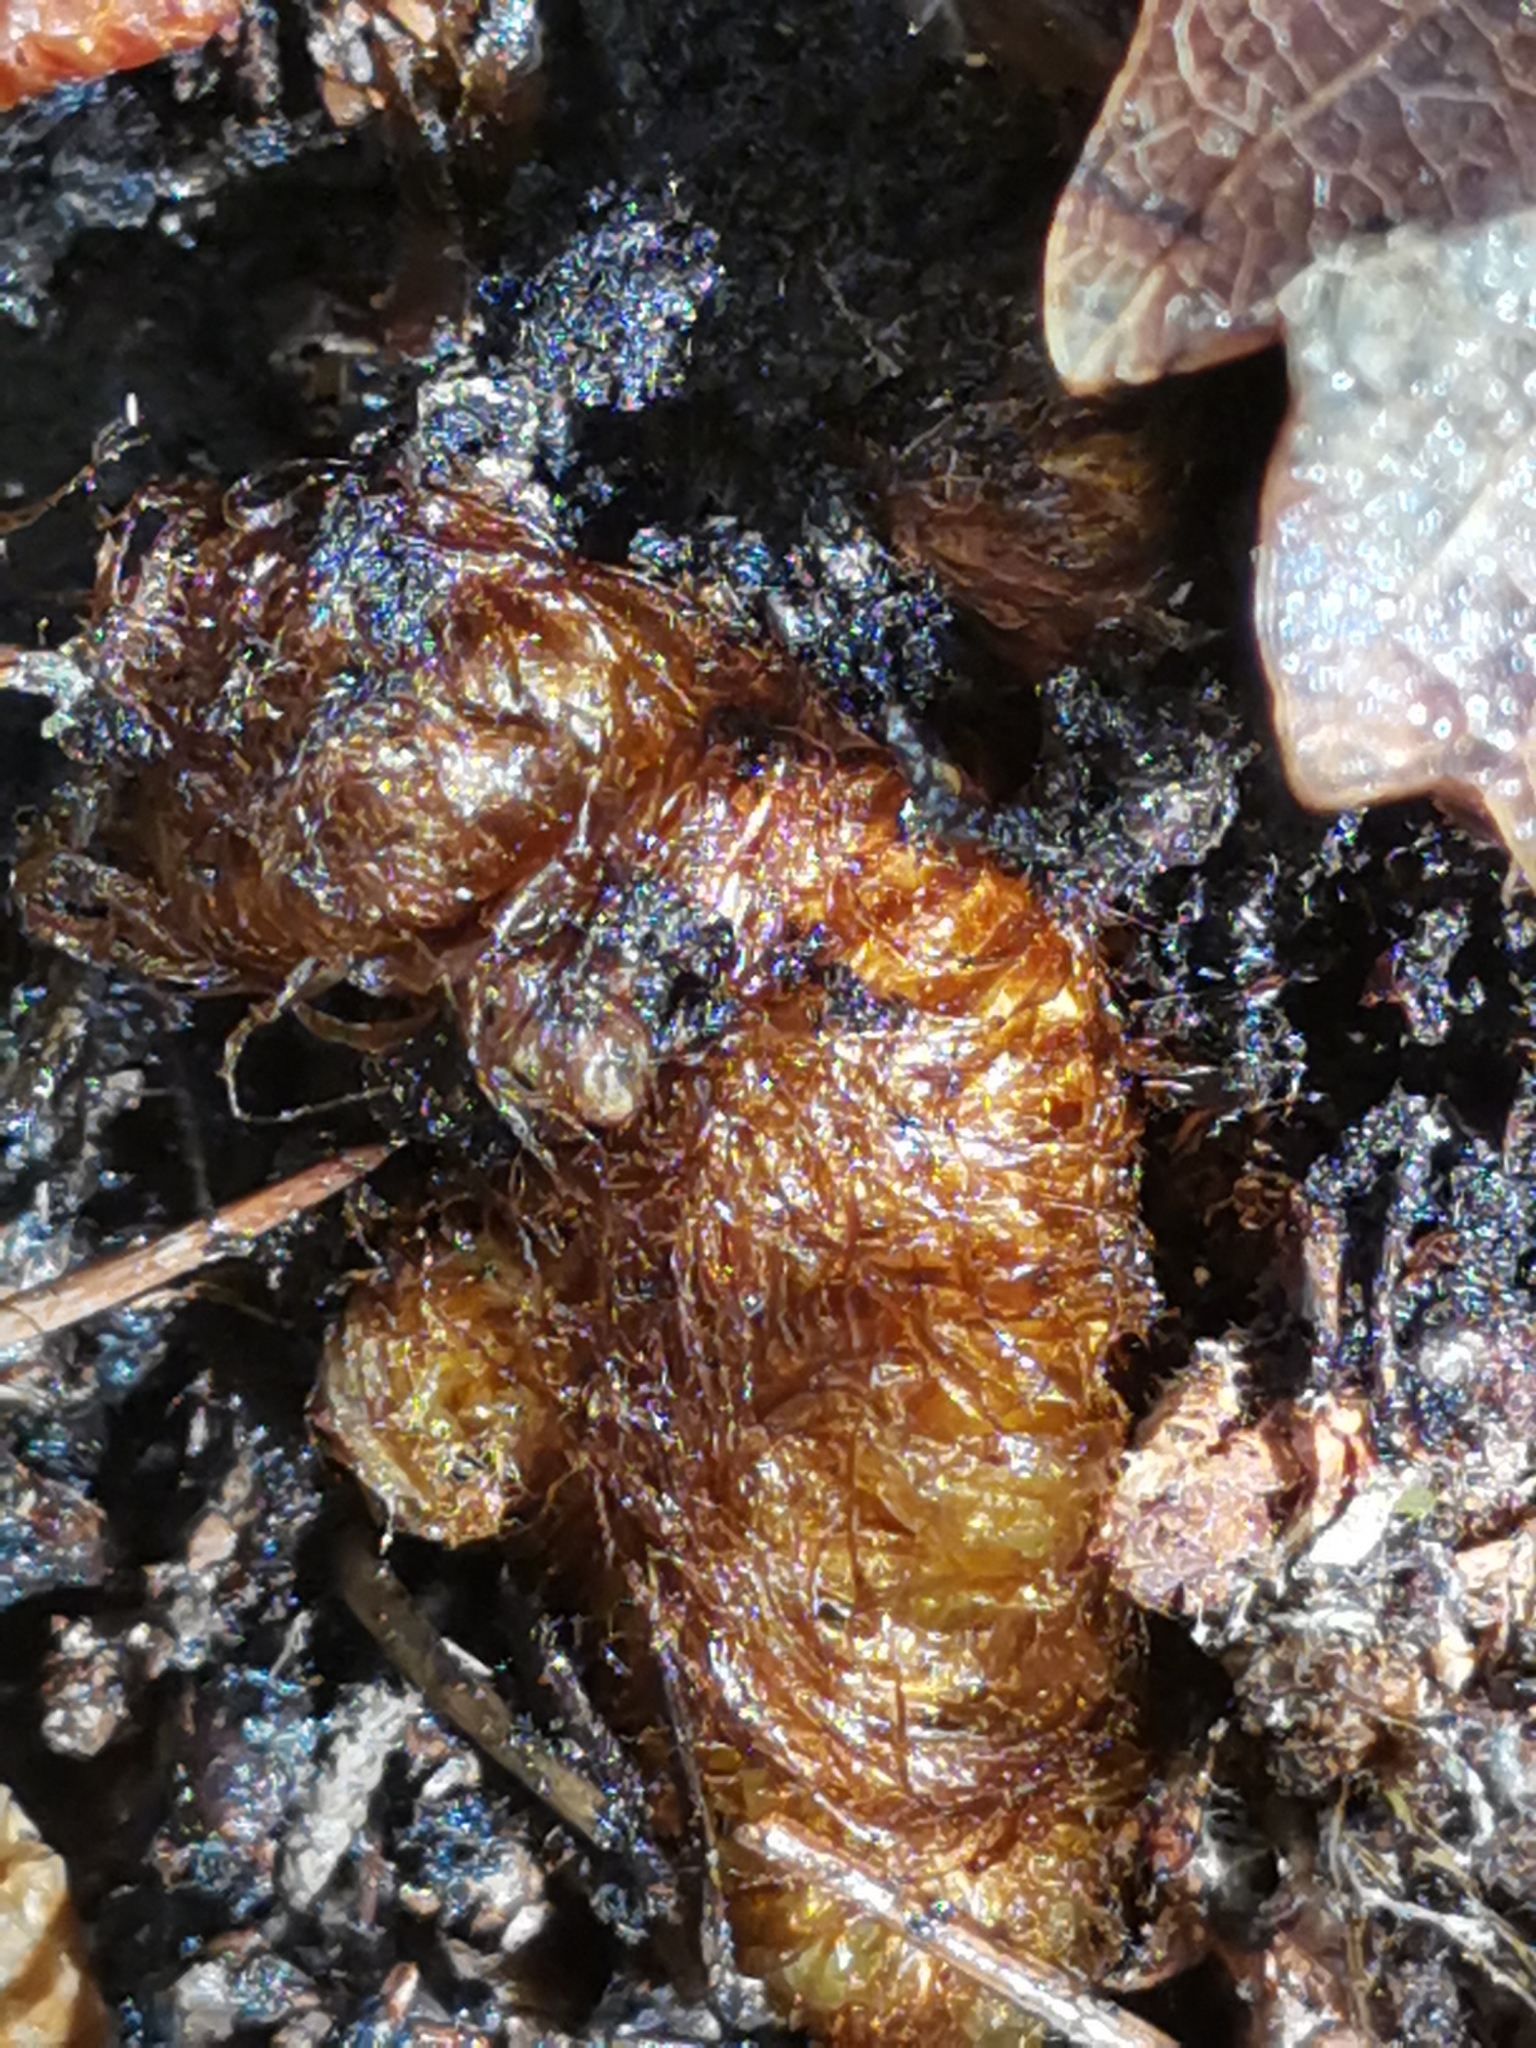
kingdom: Plantae
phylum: Tracheophyta
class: Polypodiopsida
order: Polypodiales
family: Polypodiaceae
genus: Polypodium
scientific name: Polypodium cambricum
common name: Southern polypody
